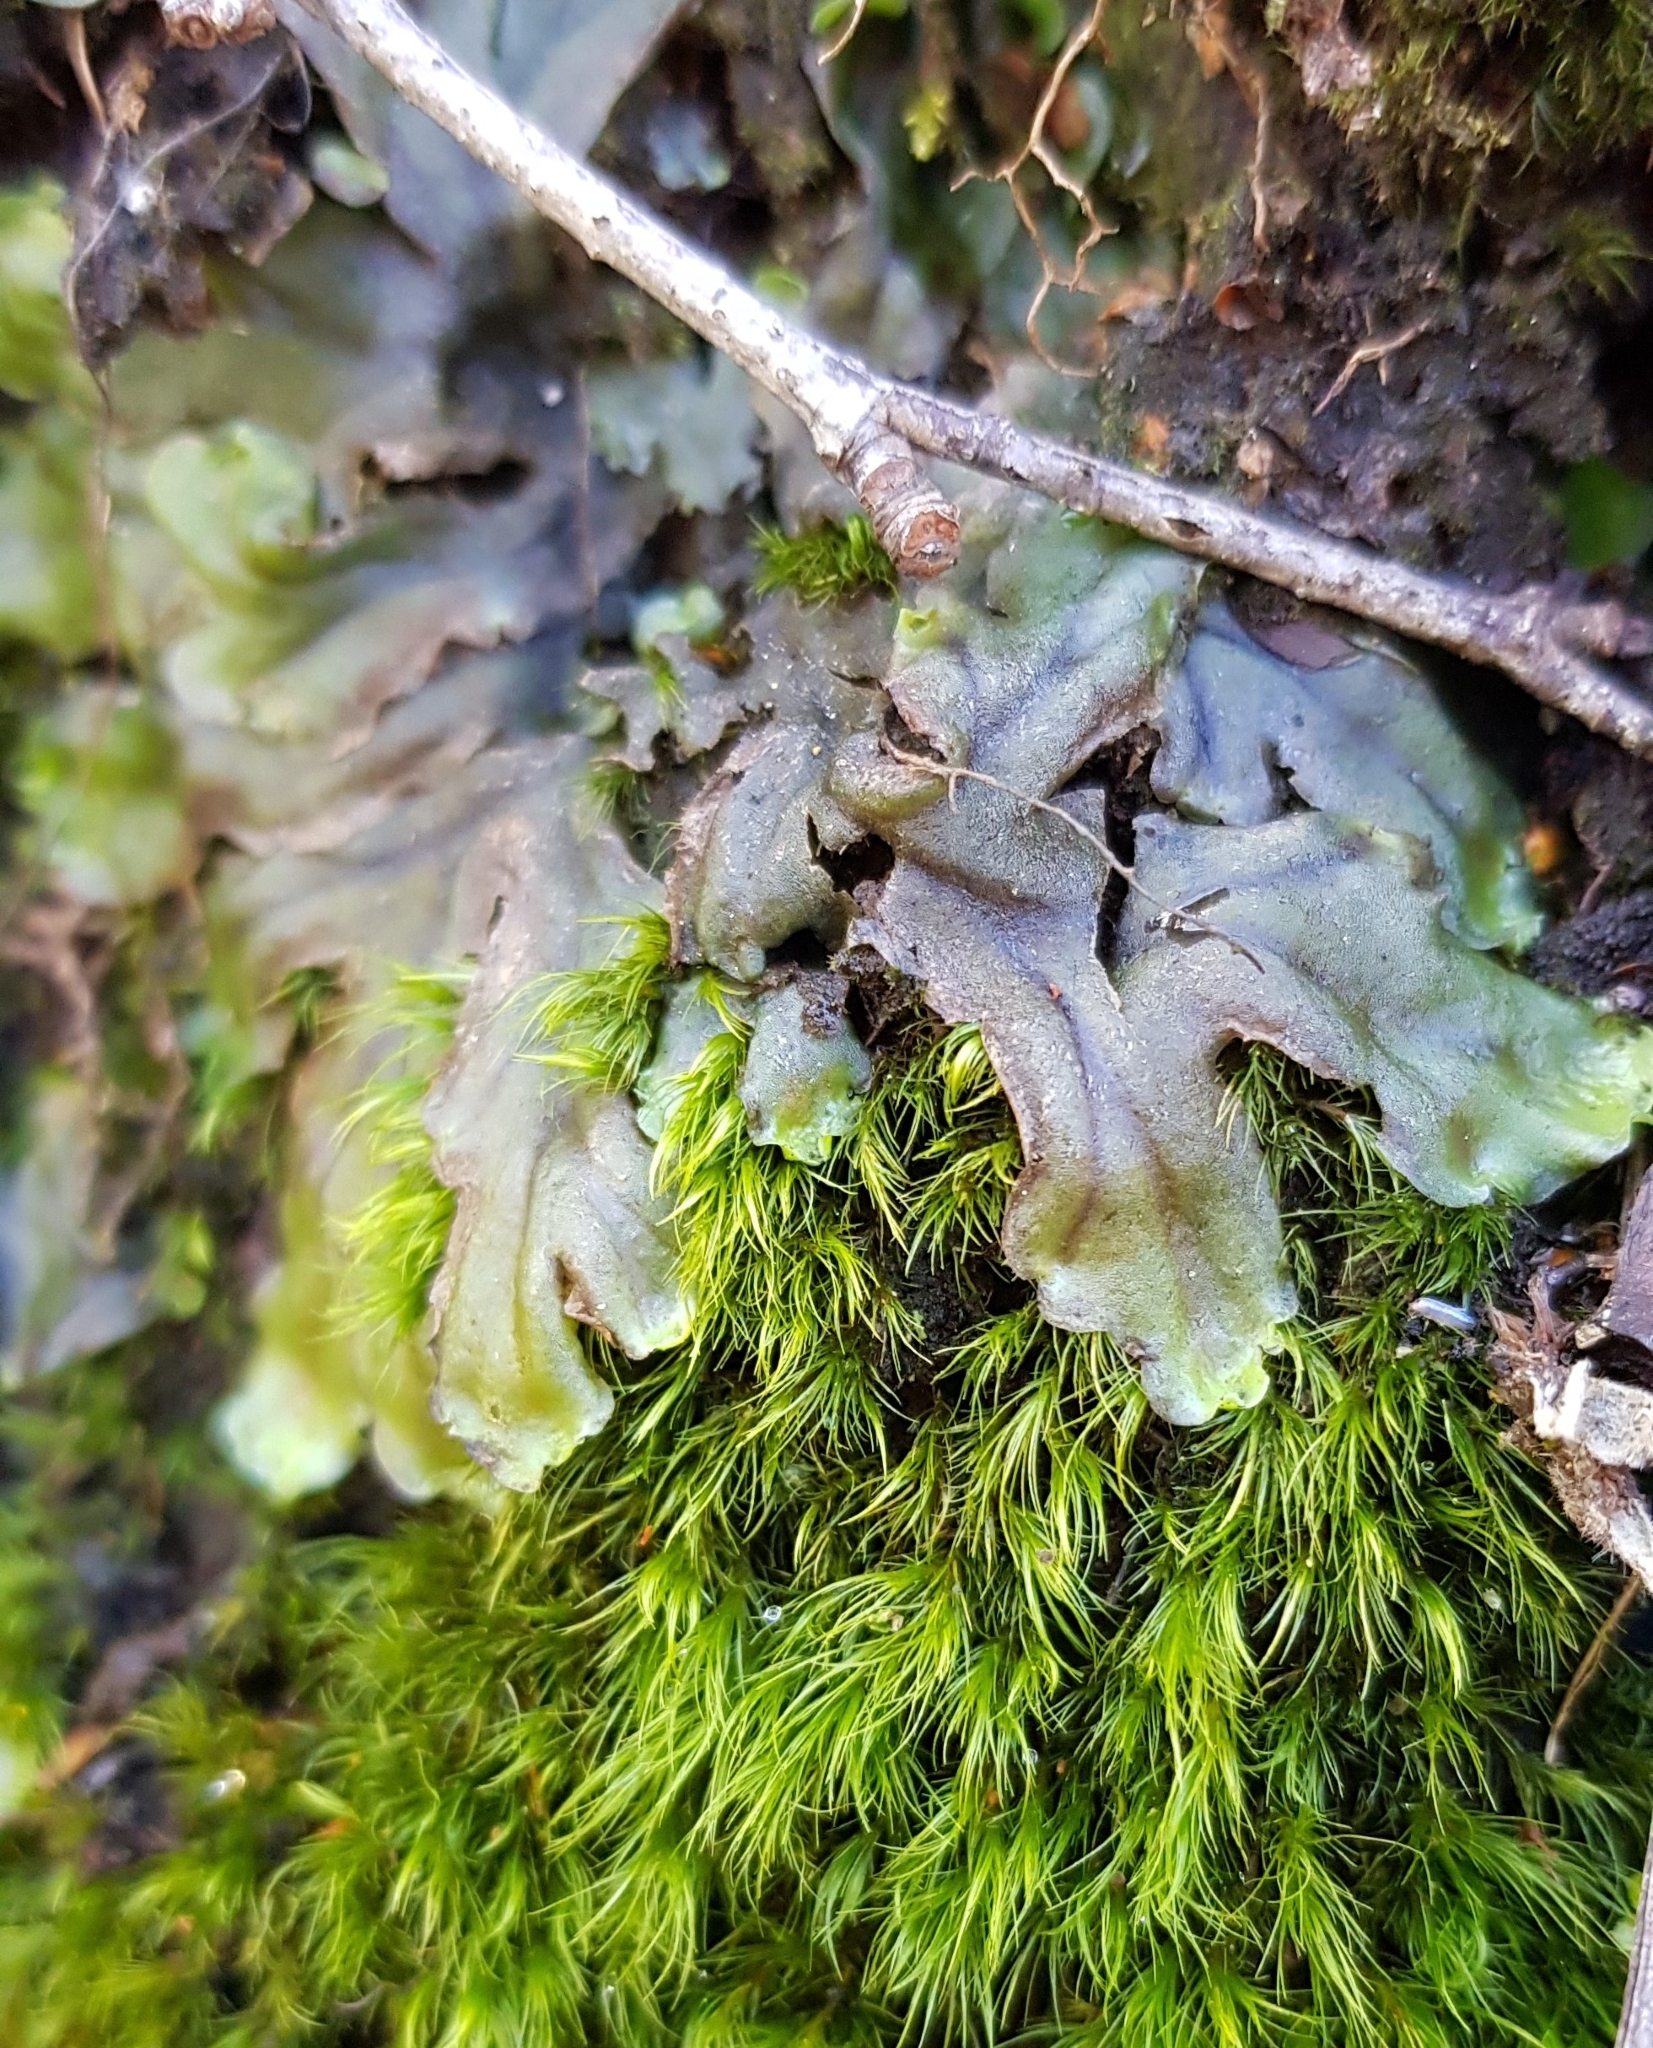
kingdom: Plantae
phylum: Marchantiophyta
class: Jungermanniopsida
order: Pelliales
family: Pelliaceae
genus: Pellia
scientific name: Pellia epiphylla
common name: Common pellia
